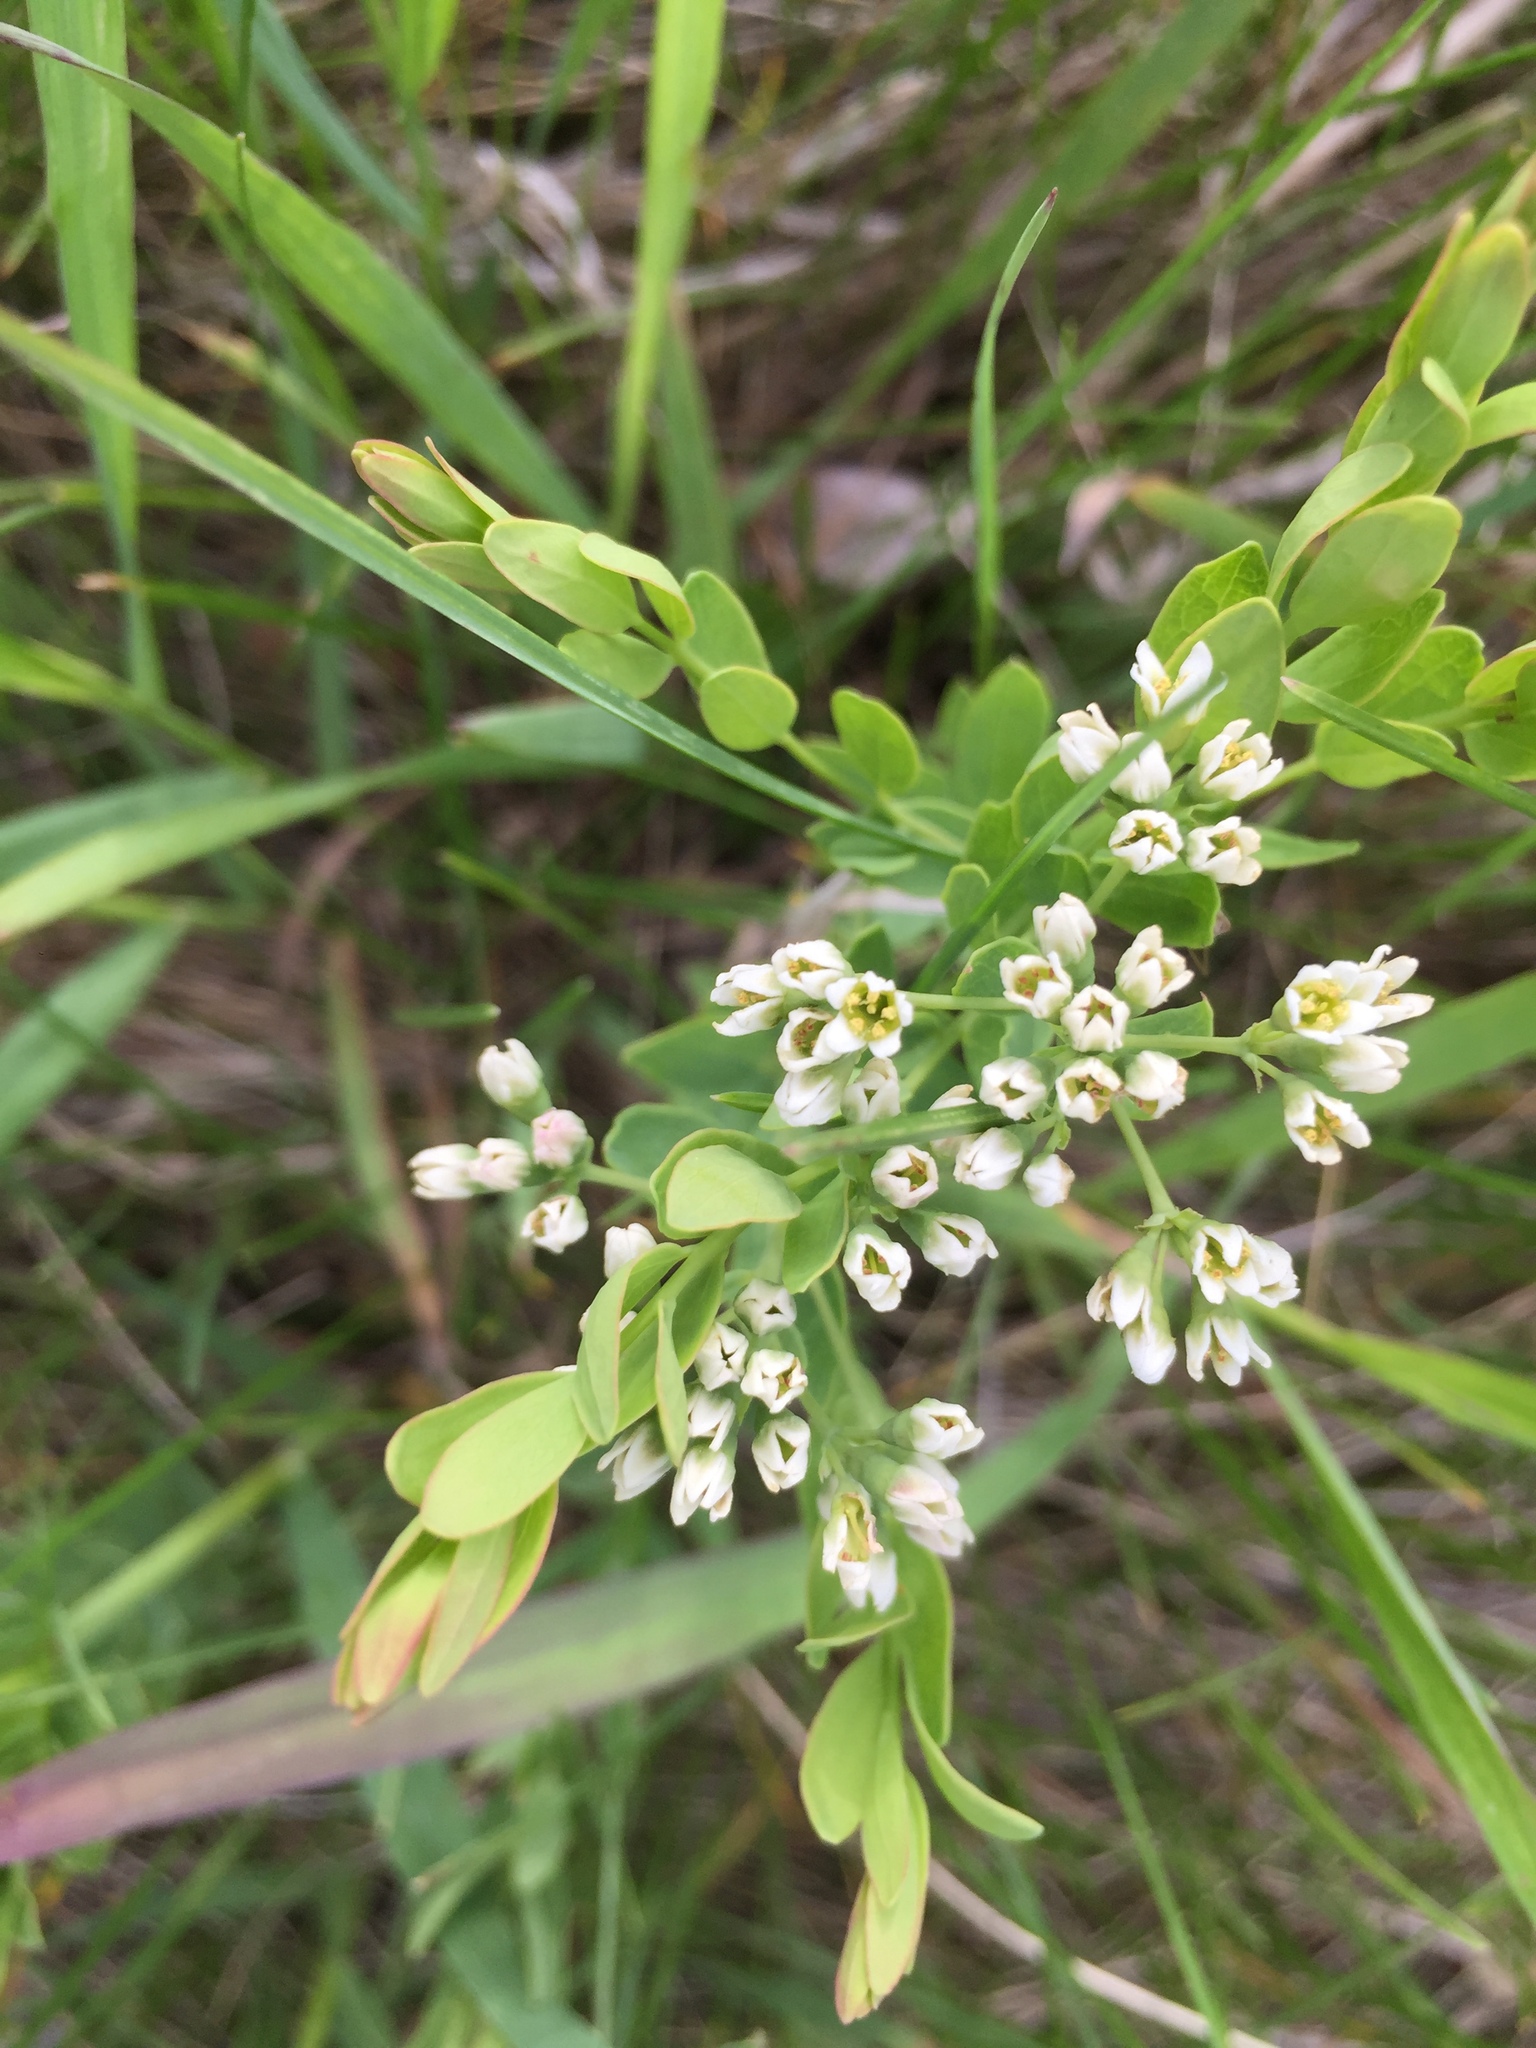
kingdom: Plantae
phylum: Tracheophyta
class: Magnoliopsida
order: Santalales
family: Comandraceae
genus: Comandra
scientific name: Comandra umbellata
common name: Bastard toadflax
